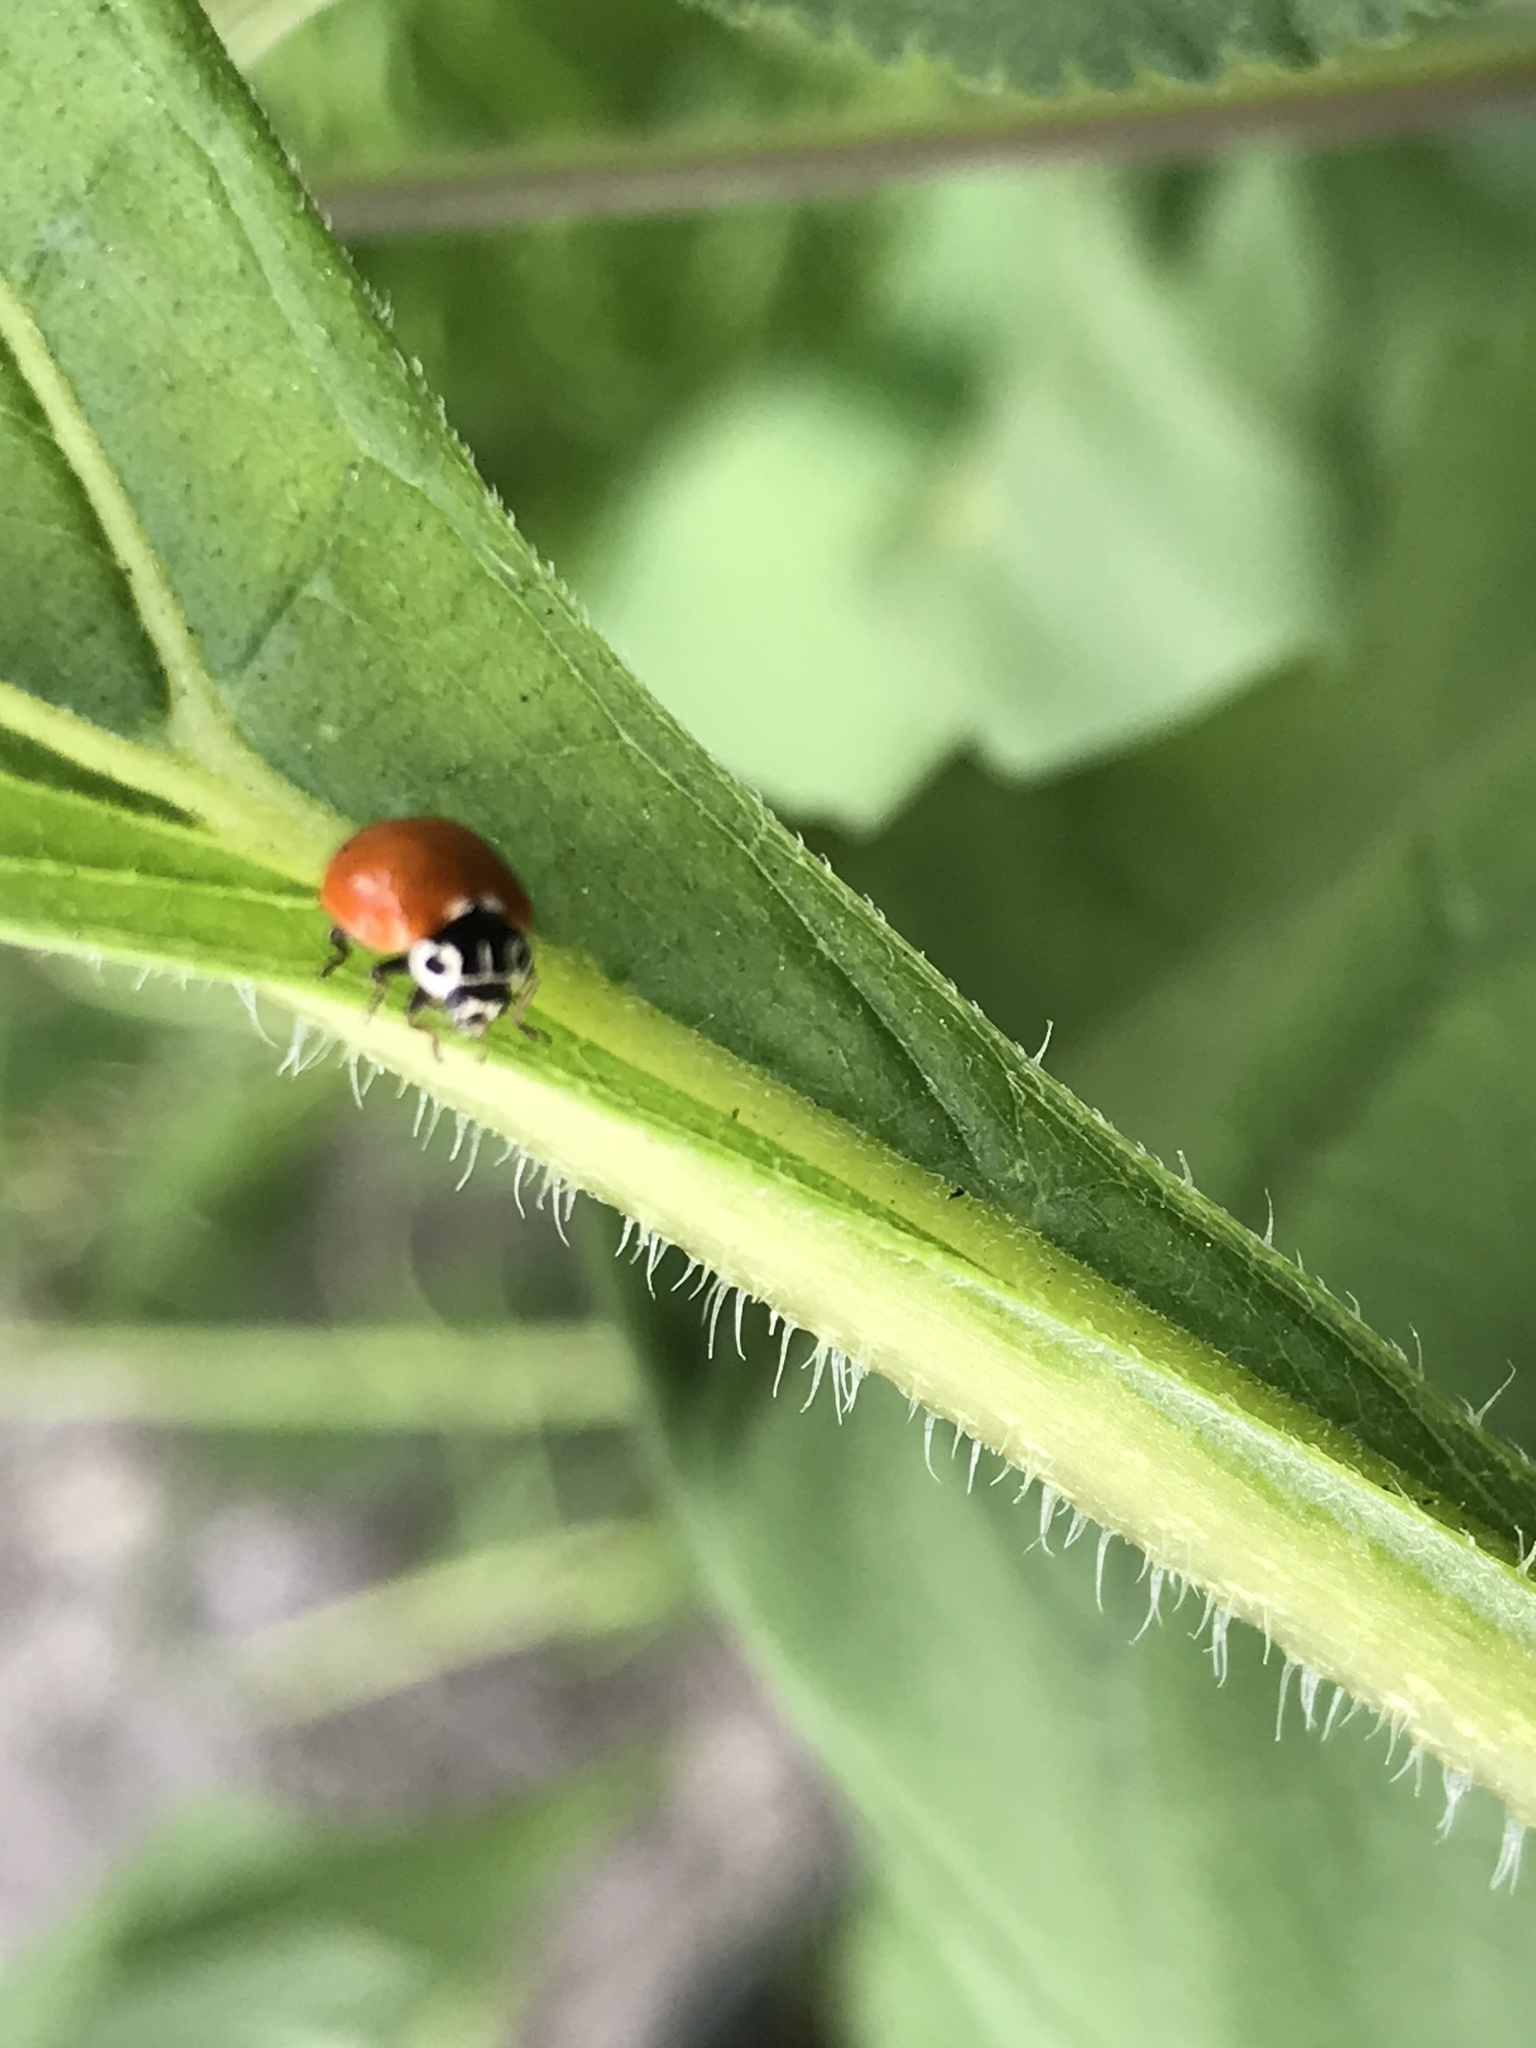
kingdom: Animalia
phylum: Arthropoda
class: Insecta
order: Coleoptera
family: Coccinellidae
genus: Cycloneda
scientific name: Cycloneda polita
